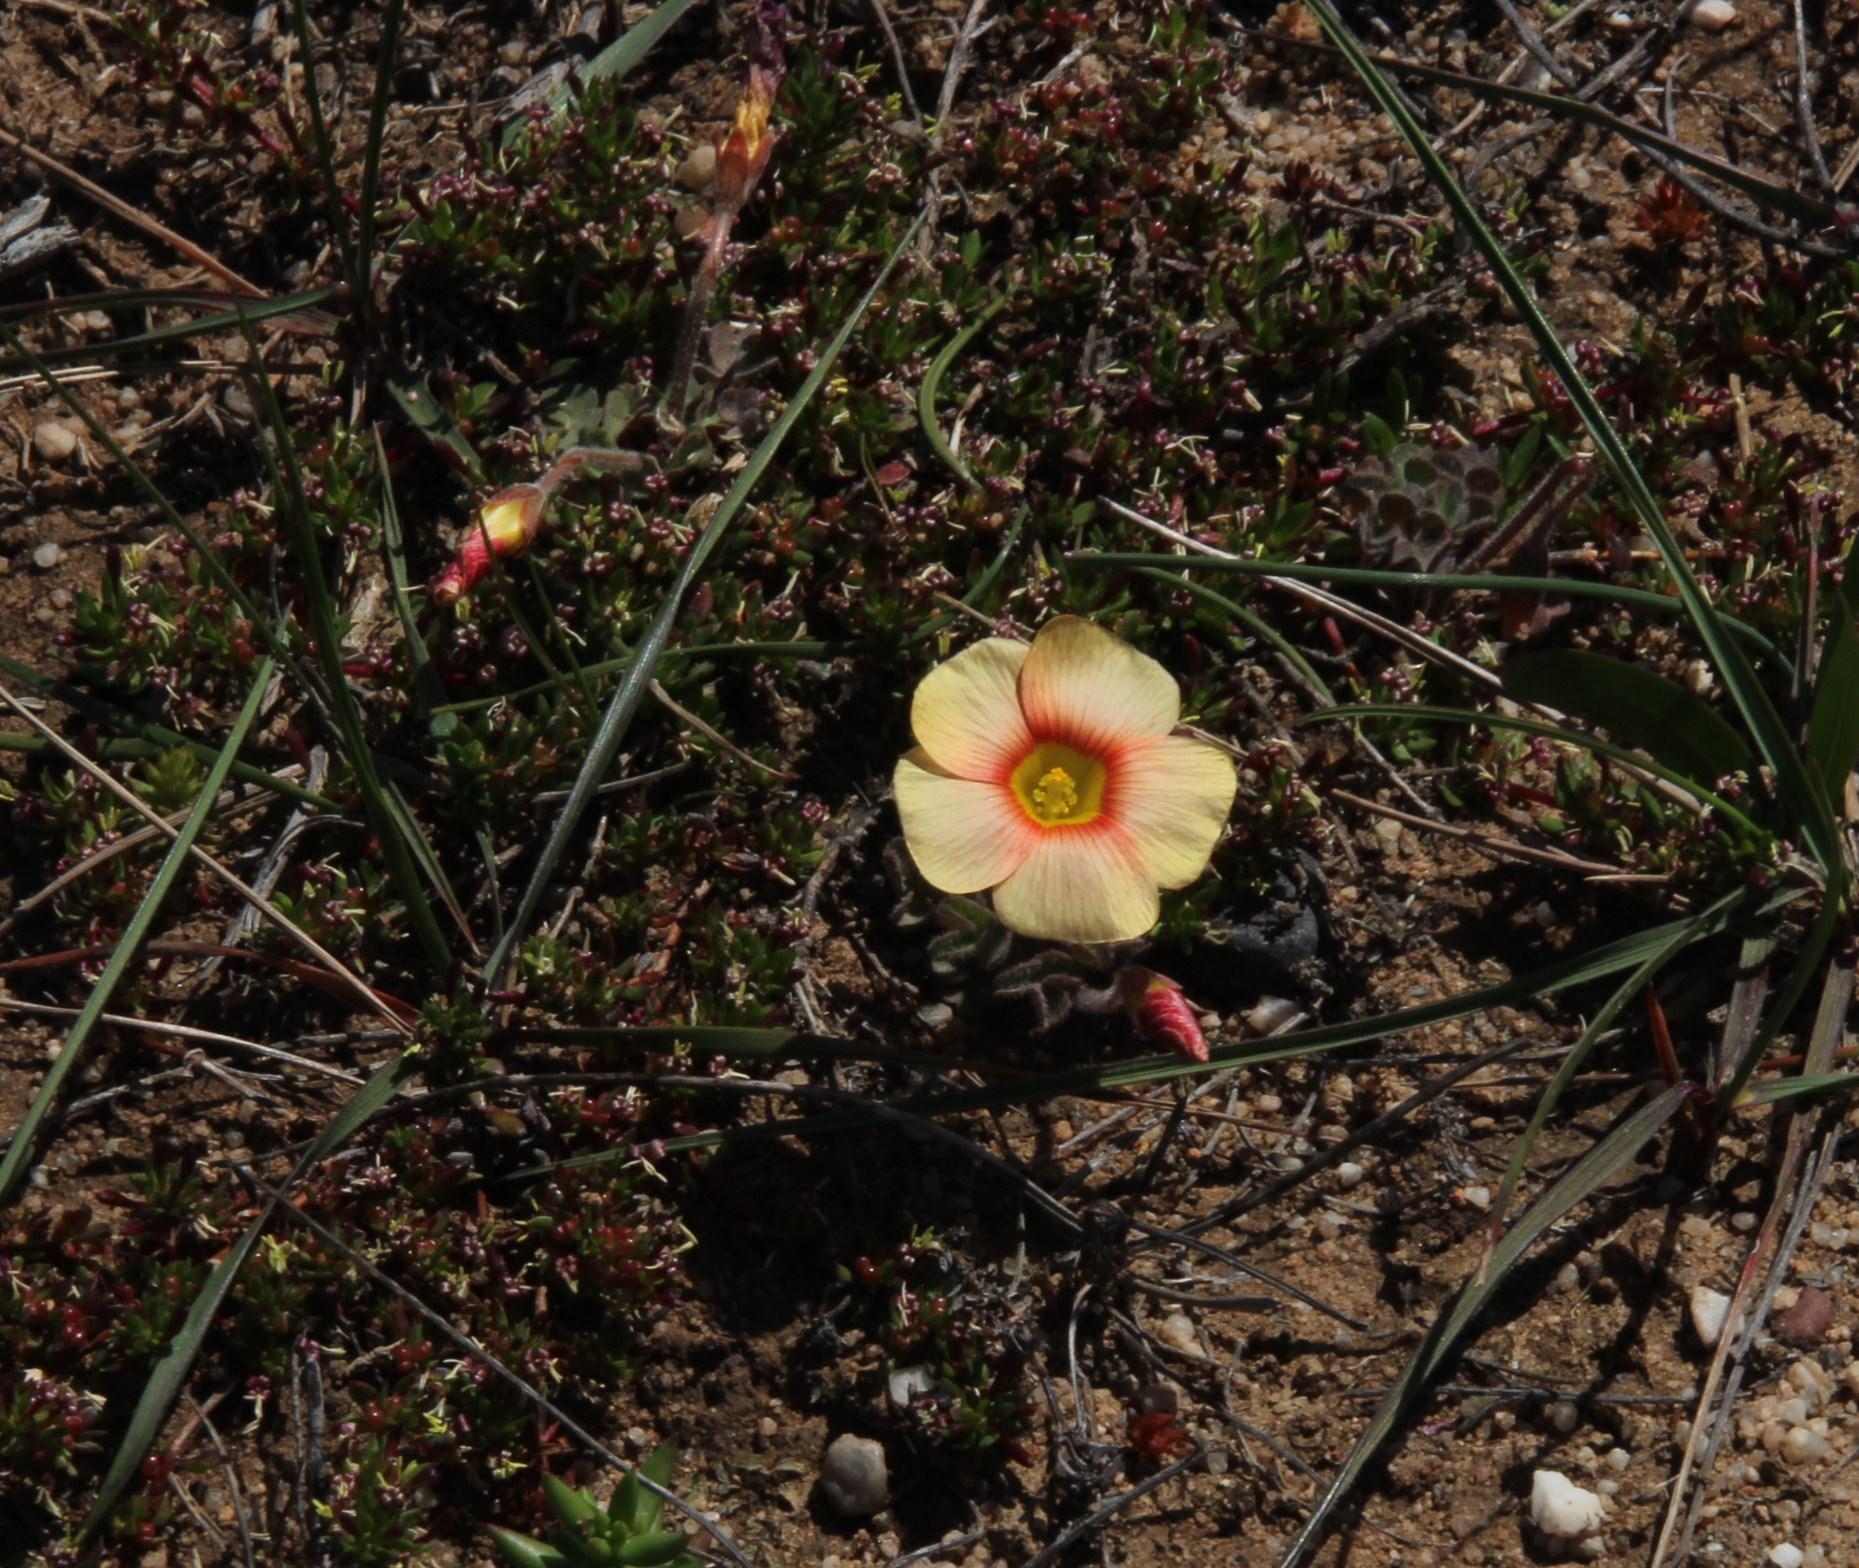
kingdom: Plantae
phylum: Tracheophyta
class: Magnoliopsida
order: Oxalidales
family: Oxalidaceae
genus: Oxalis
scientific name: Oxalis obtusa
